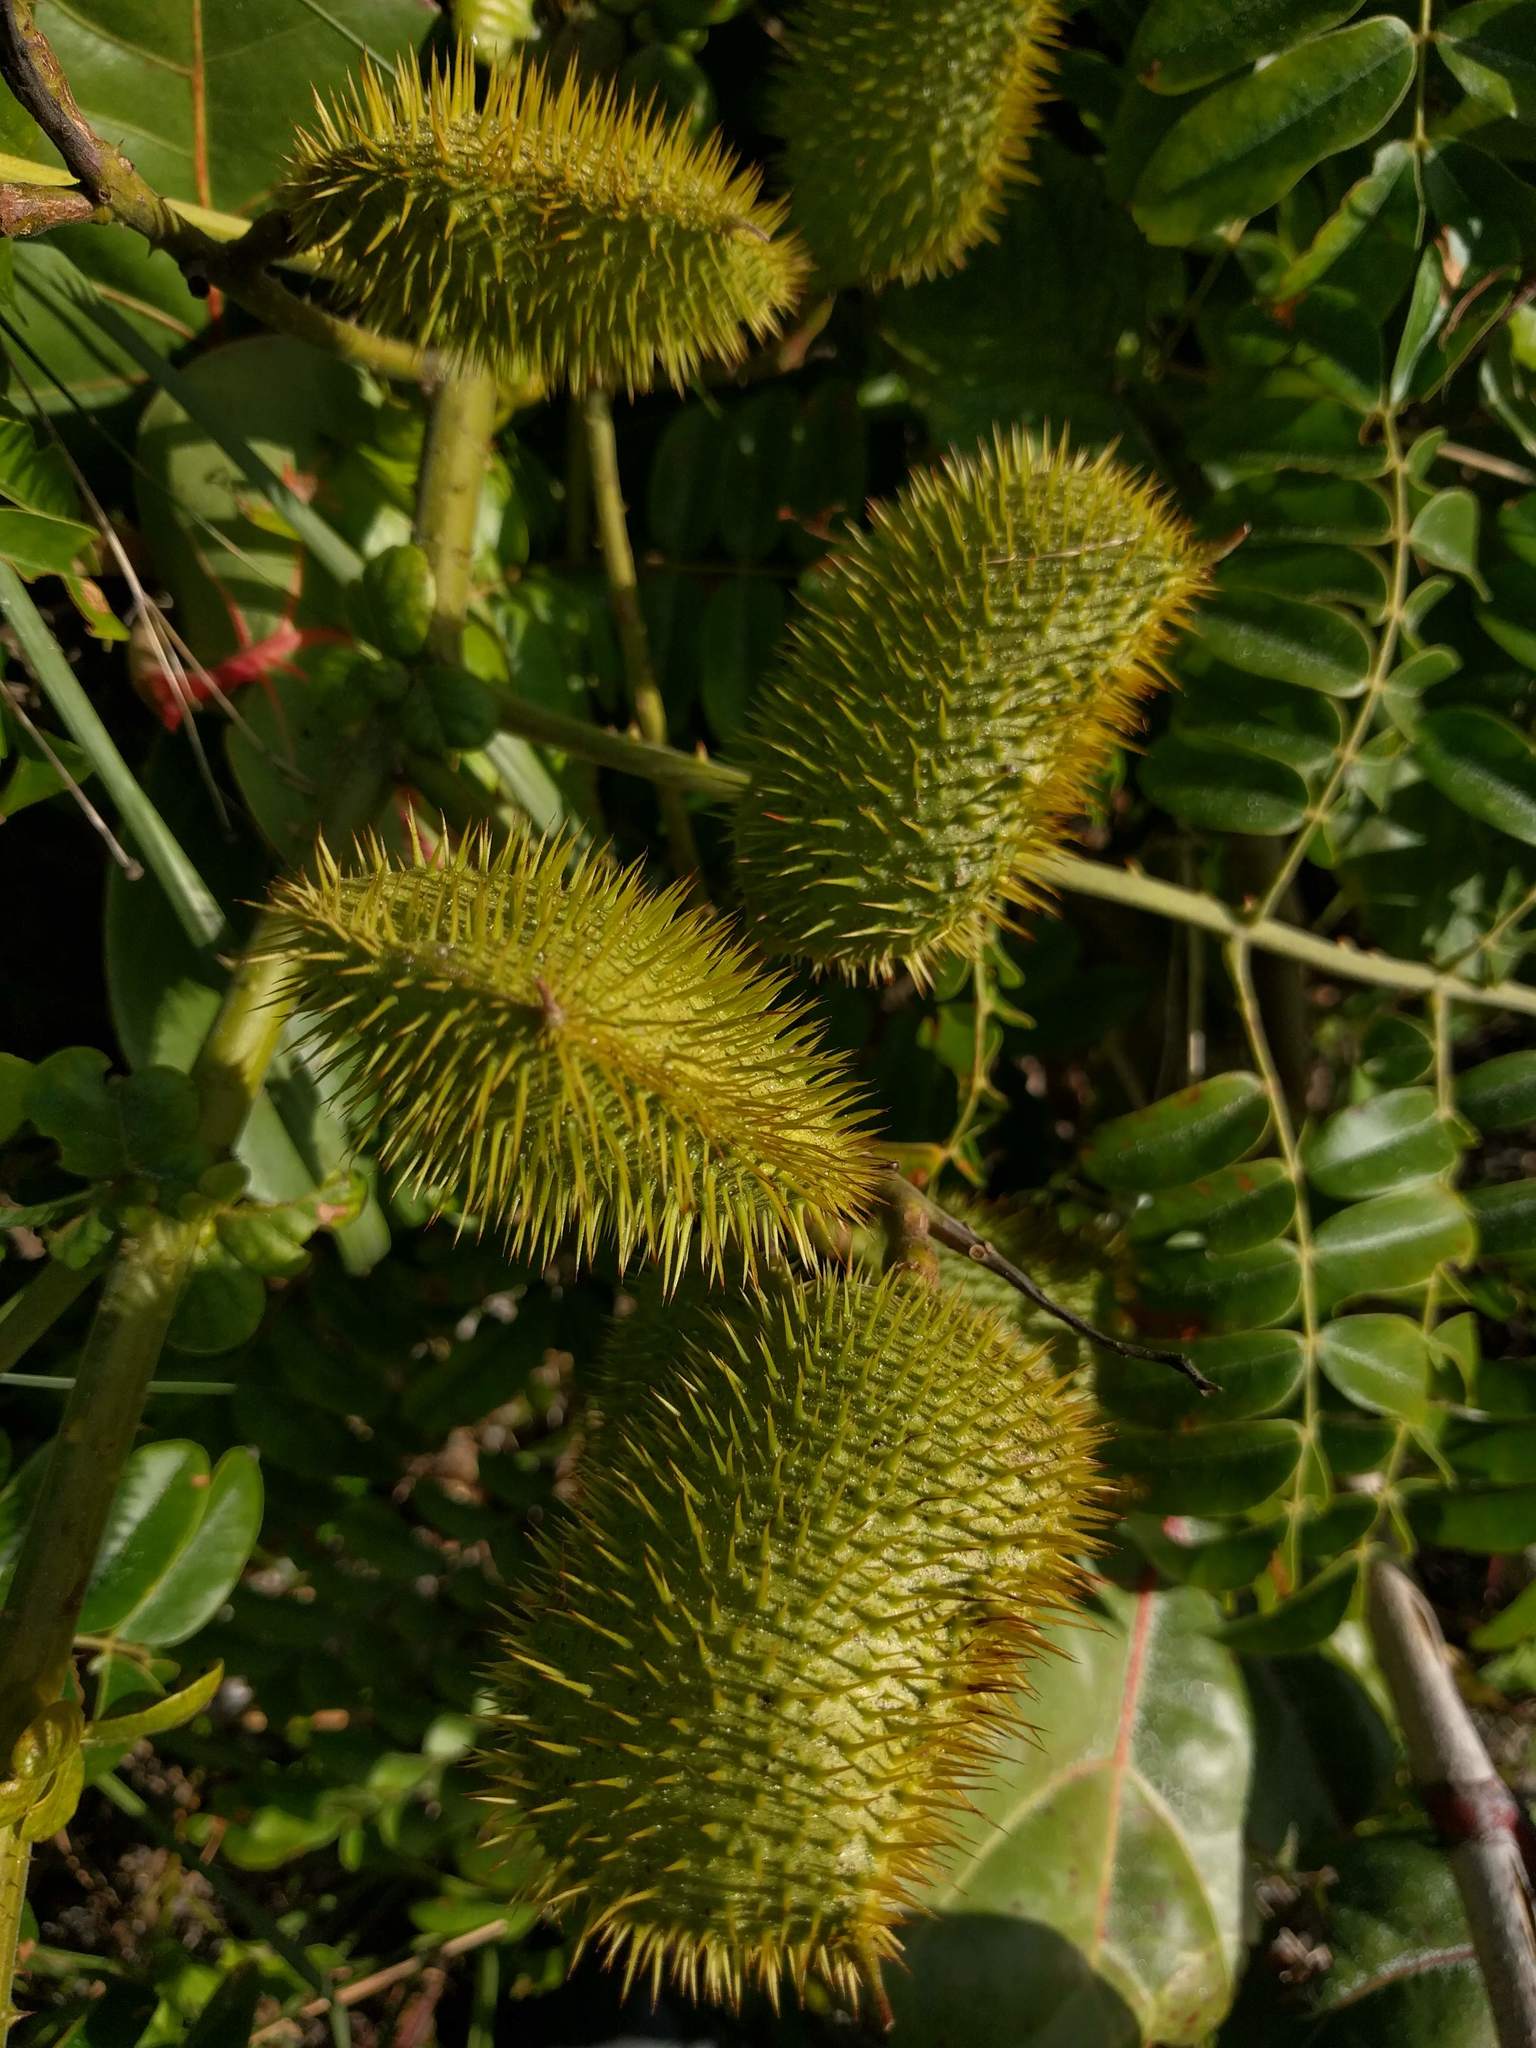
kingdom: Plantae
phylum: Tracheophyta
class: Magnoliopsida
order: Fabales
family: Fabaceae
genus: Guilandina
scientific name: Guilandina bonduc
